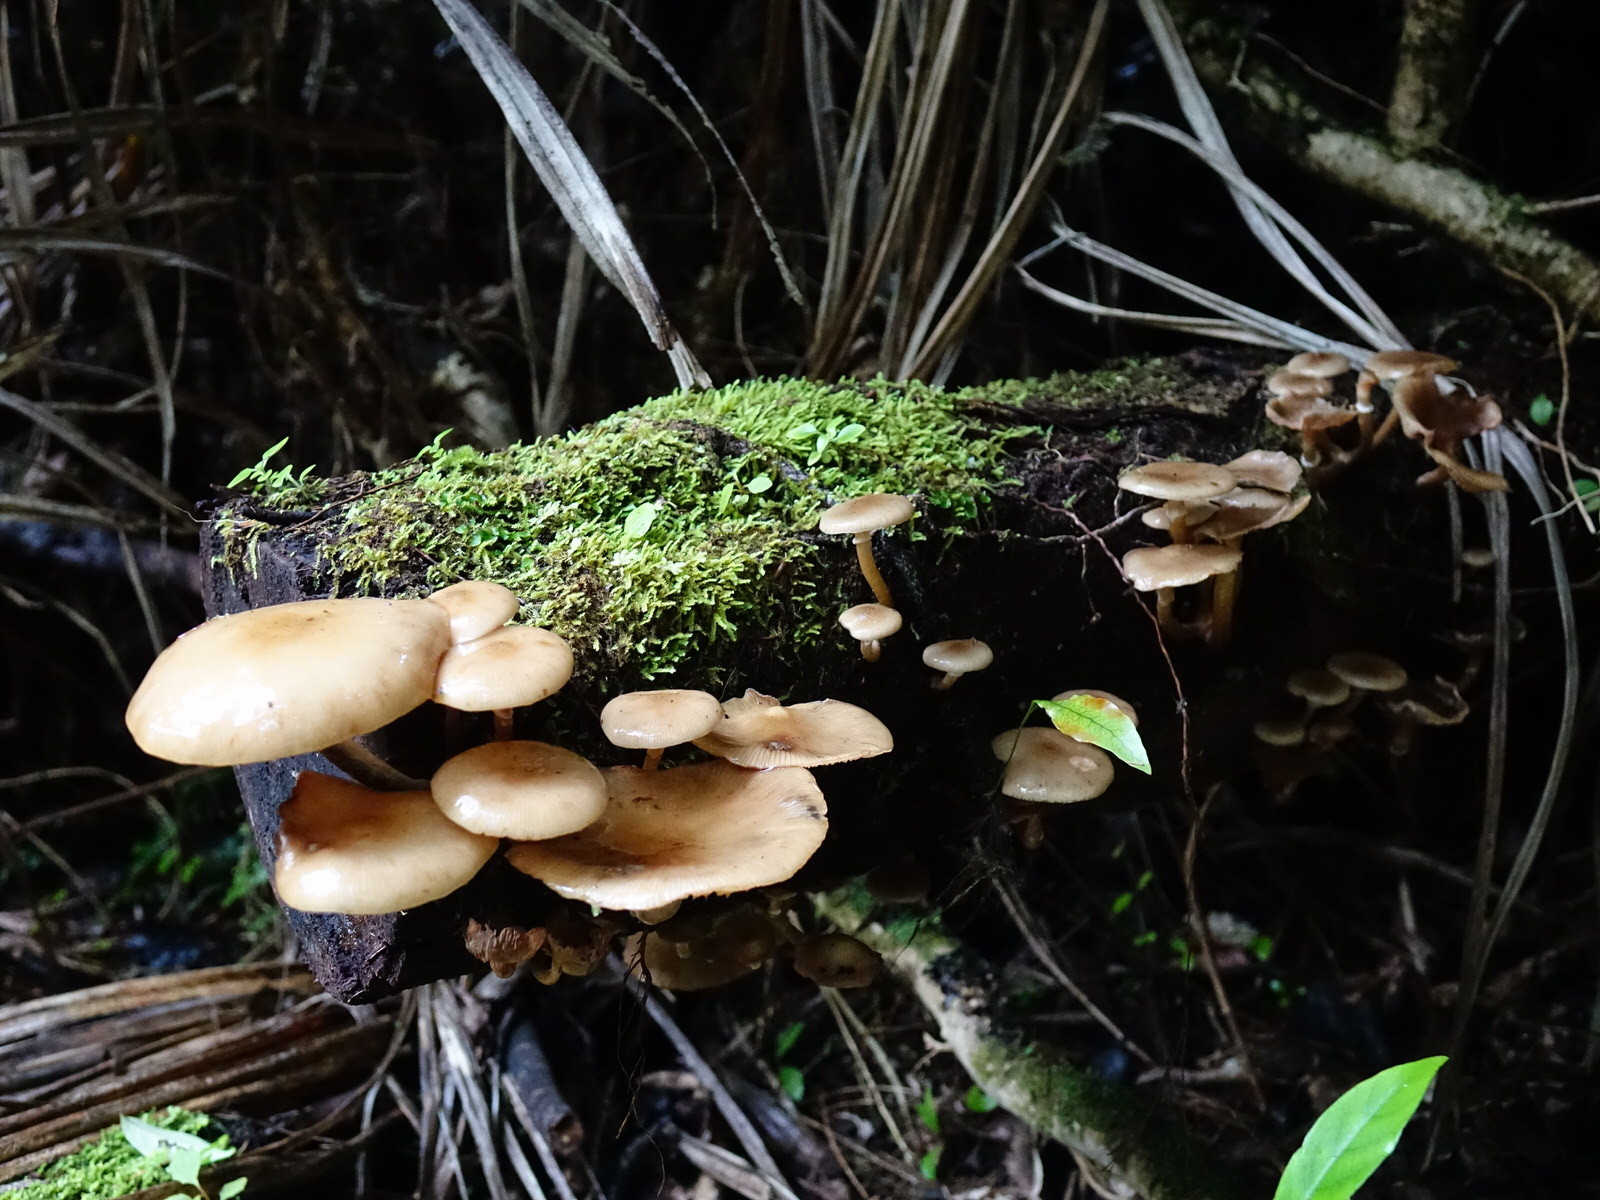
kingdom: Fungi
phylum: Basidiomycota
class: Agaricomycetes
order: Agaricales
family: Physalacriaceae
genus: Armillaria
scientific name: Armillaria novae-zelandiae
